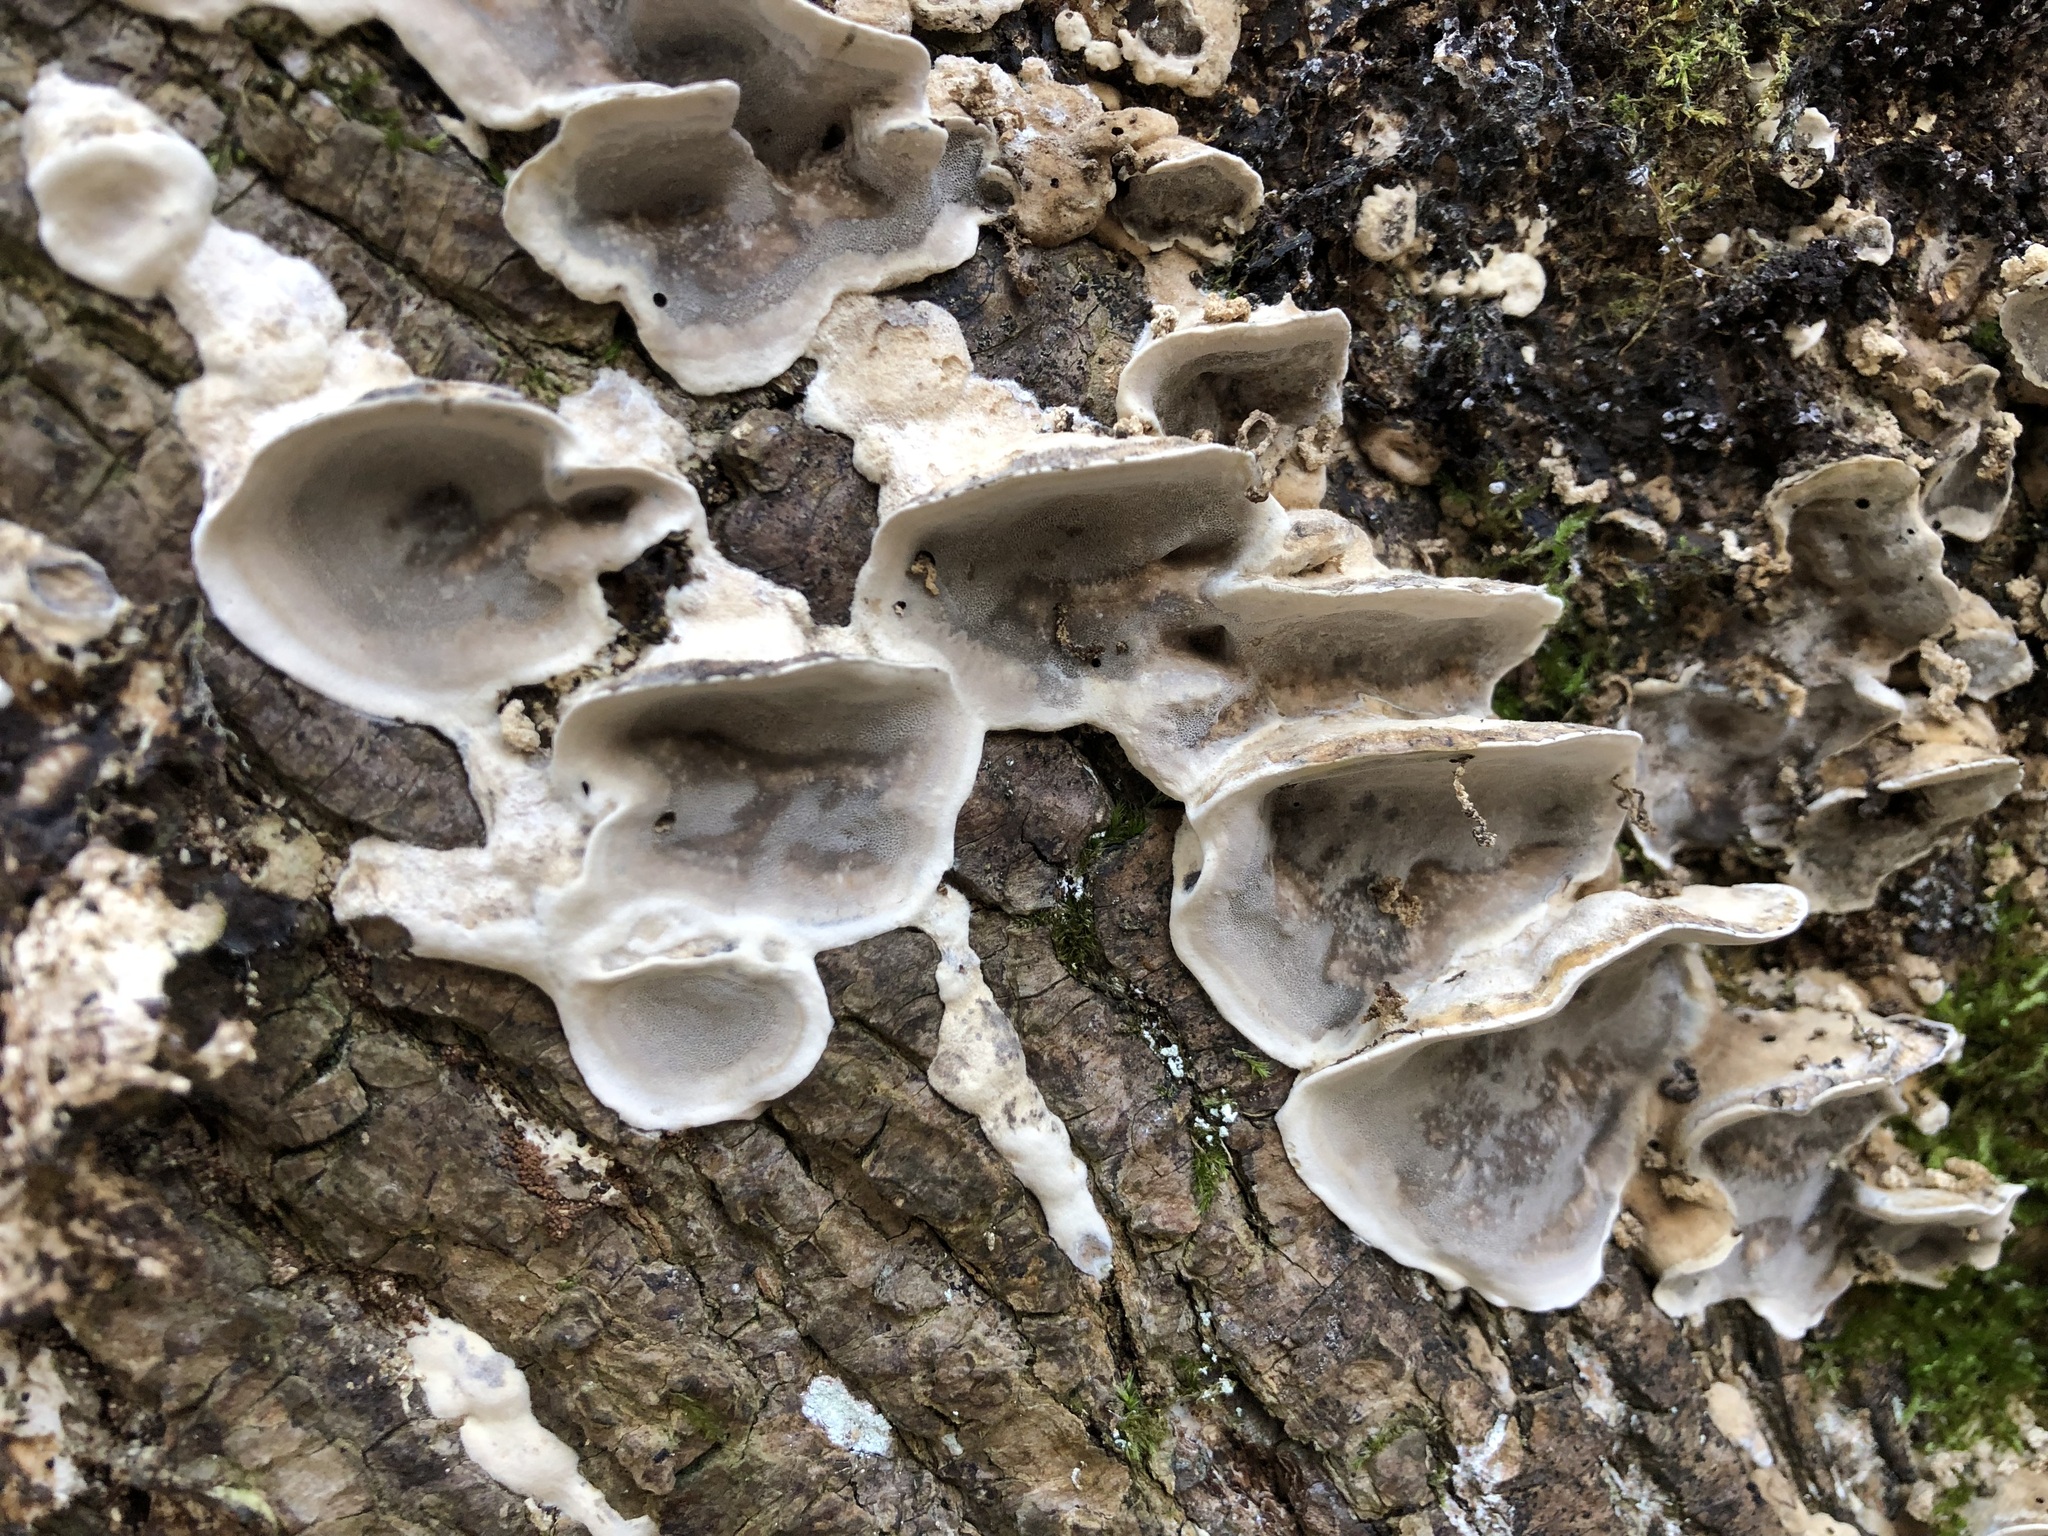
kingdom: Fungi
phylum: Basidiomycota
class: Agaricomycetes
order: Polyporales
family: Phanerochaetaceae
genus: Bjerkandera
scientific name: Bjerkandera adusta
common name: Smoky bracket
